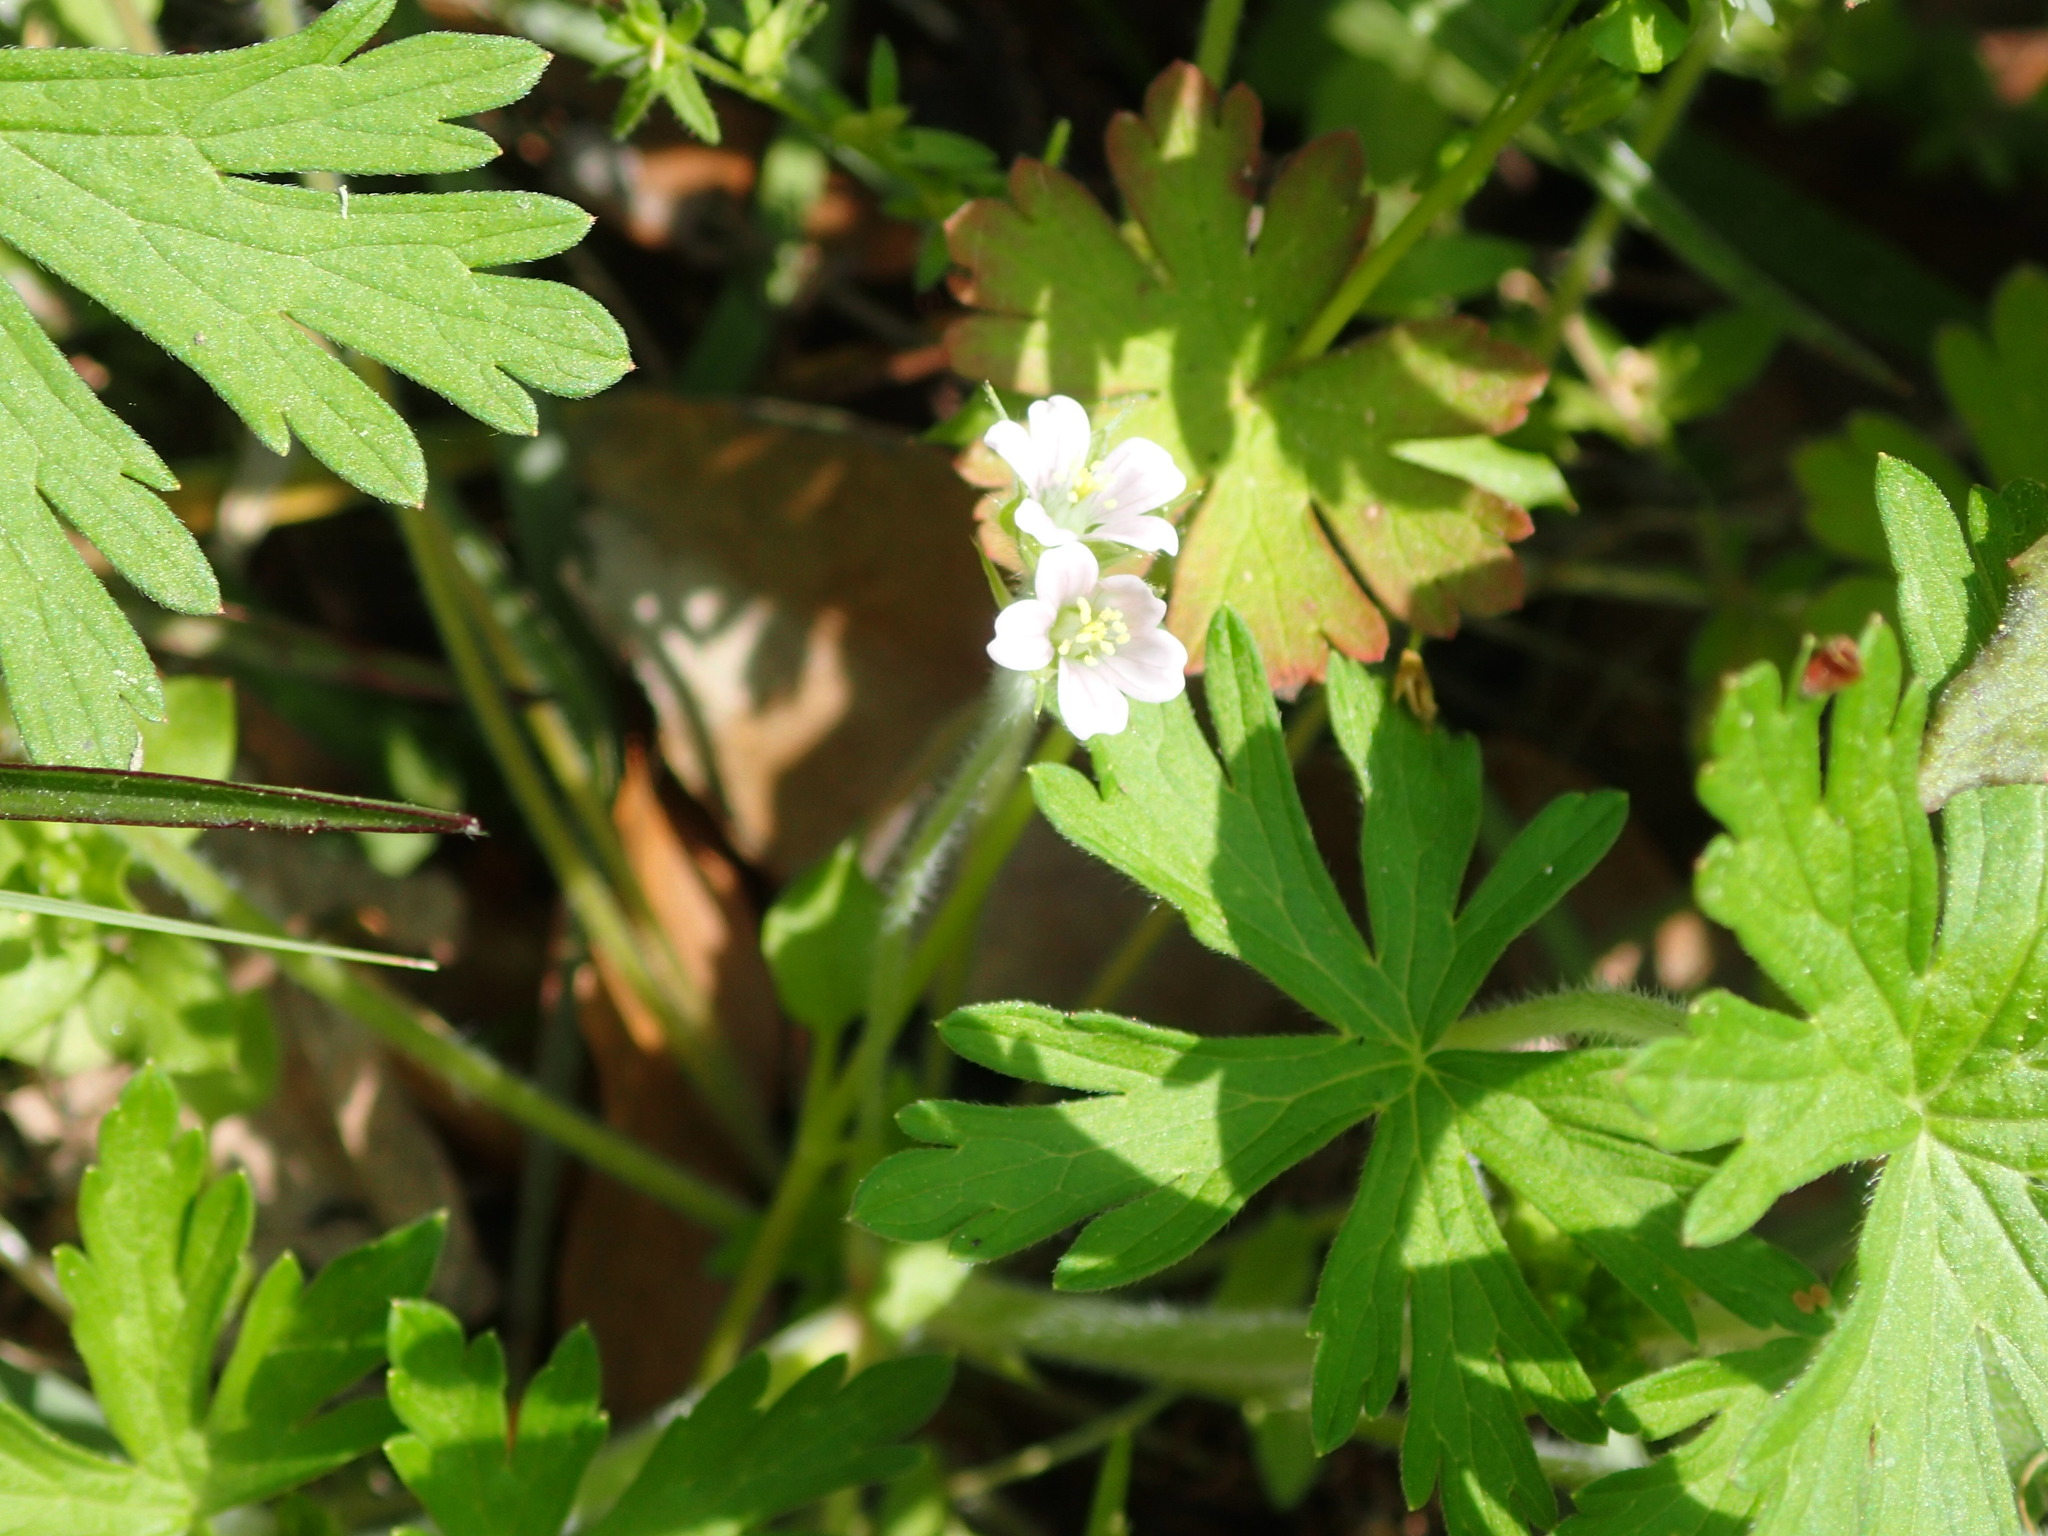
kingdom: Plantae
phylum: Tracheophyta
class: Magnoliopsida
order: Geraniales
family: Geraniaceae
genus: Geranium
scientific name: Geranium carolinianum
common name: Carolina crane's-bill
